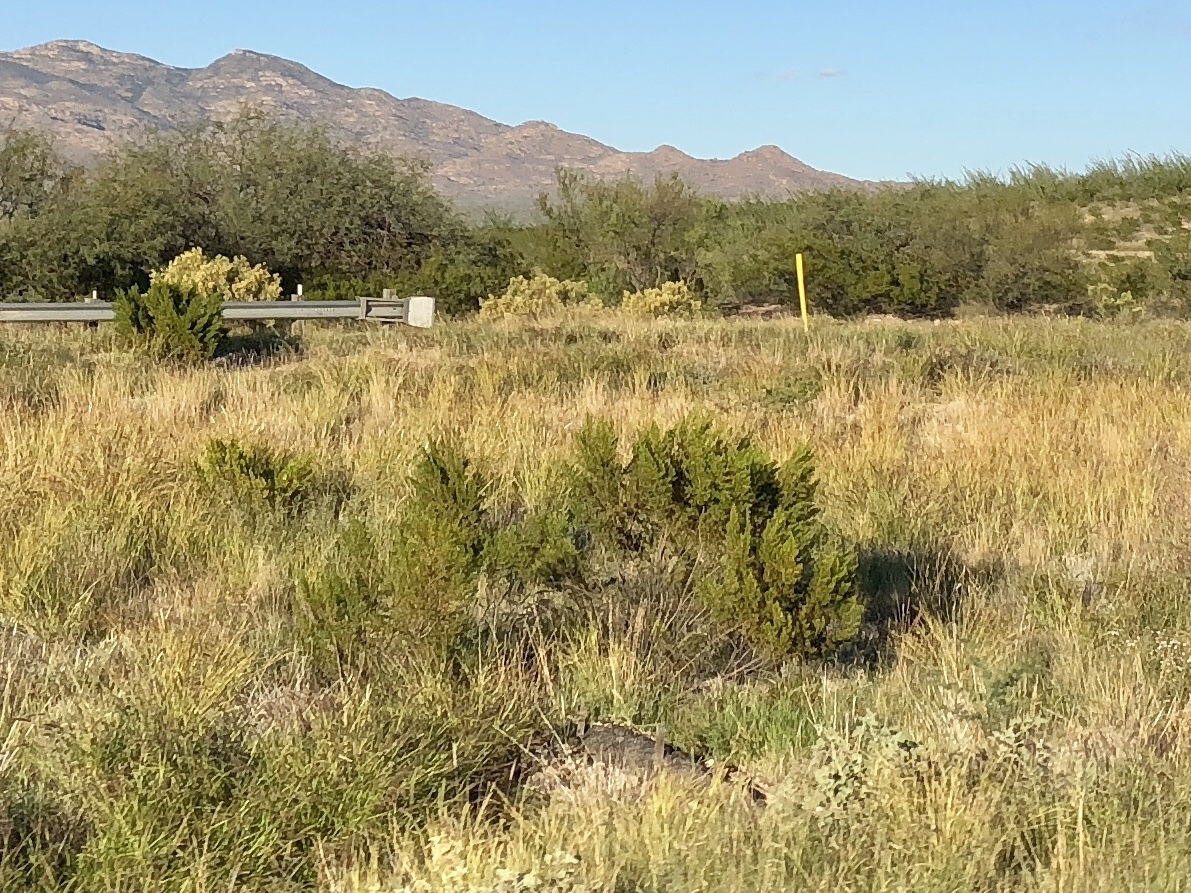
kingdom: Plantae
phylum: Tracheophyta
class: Magnoliopsida
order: Zygophyllales
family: Zygophyllaceae
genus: Larrea
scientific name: Larrea tridentata
